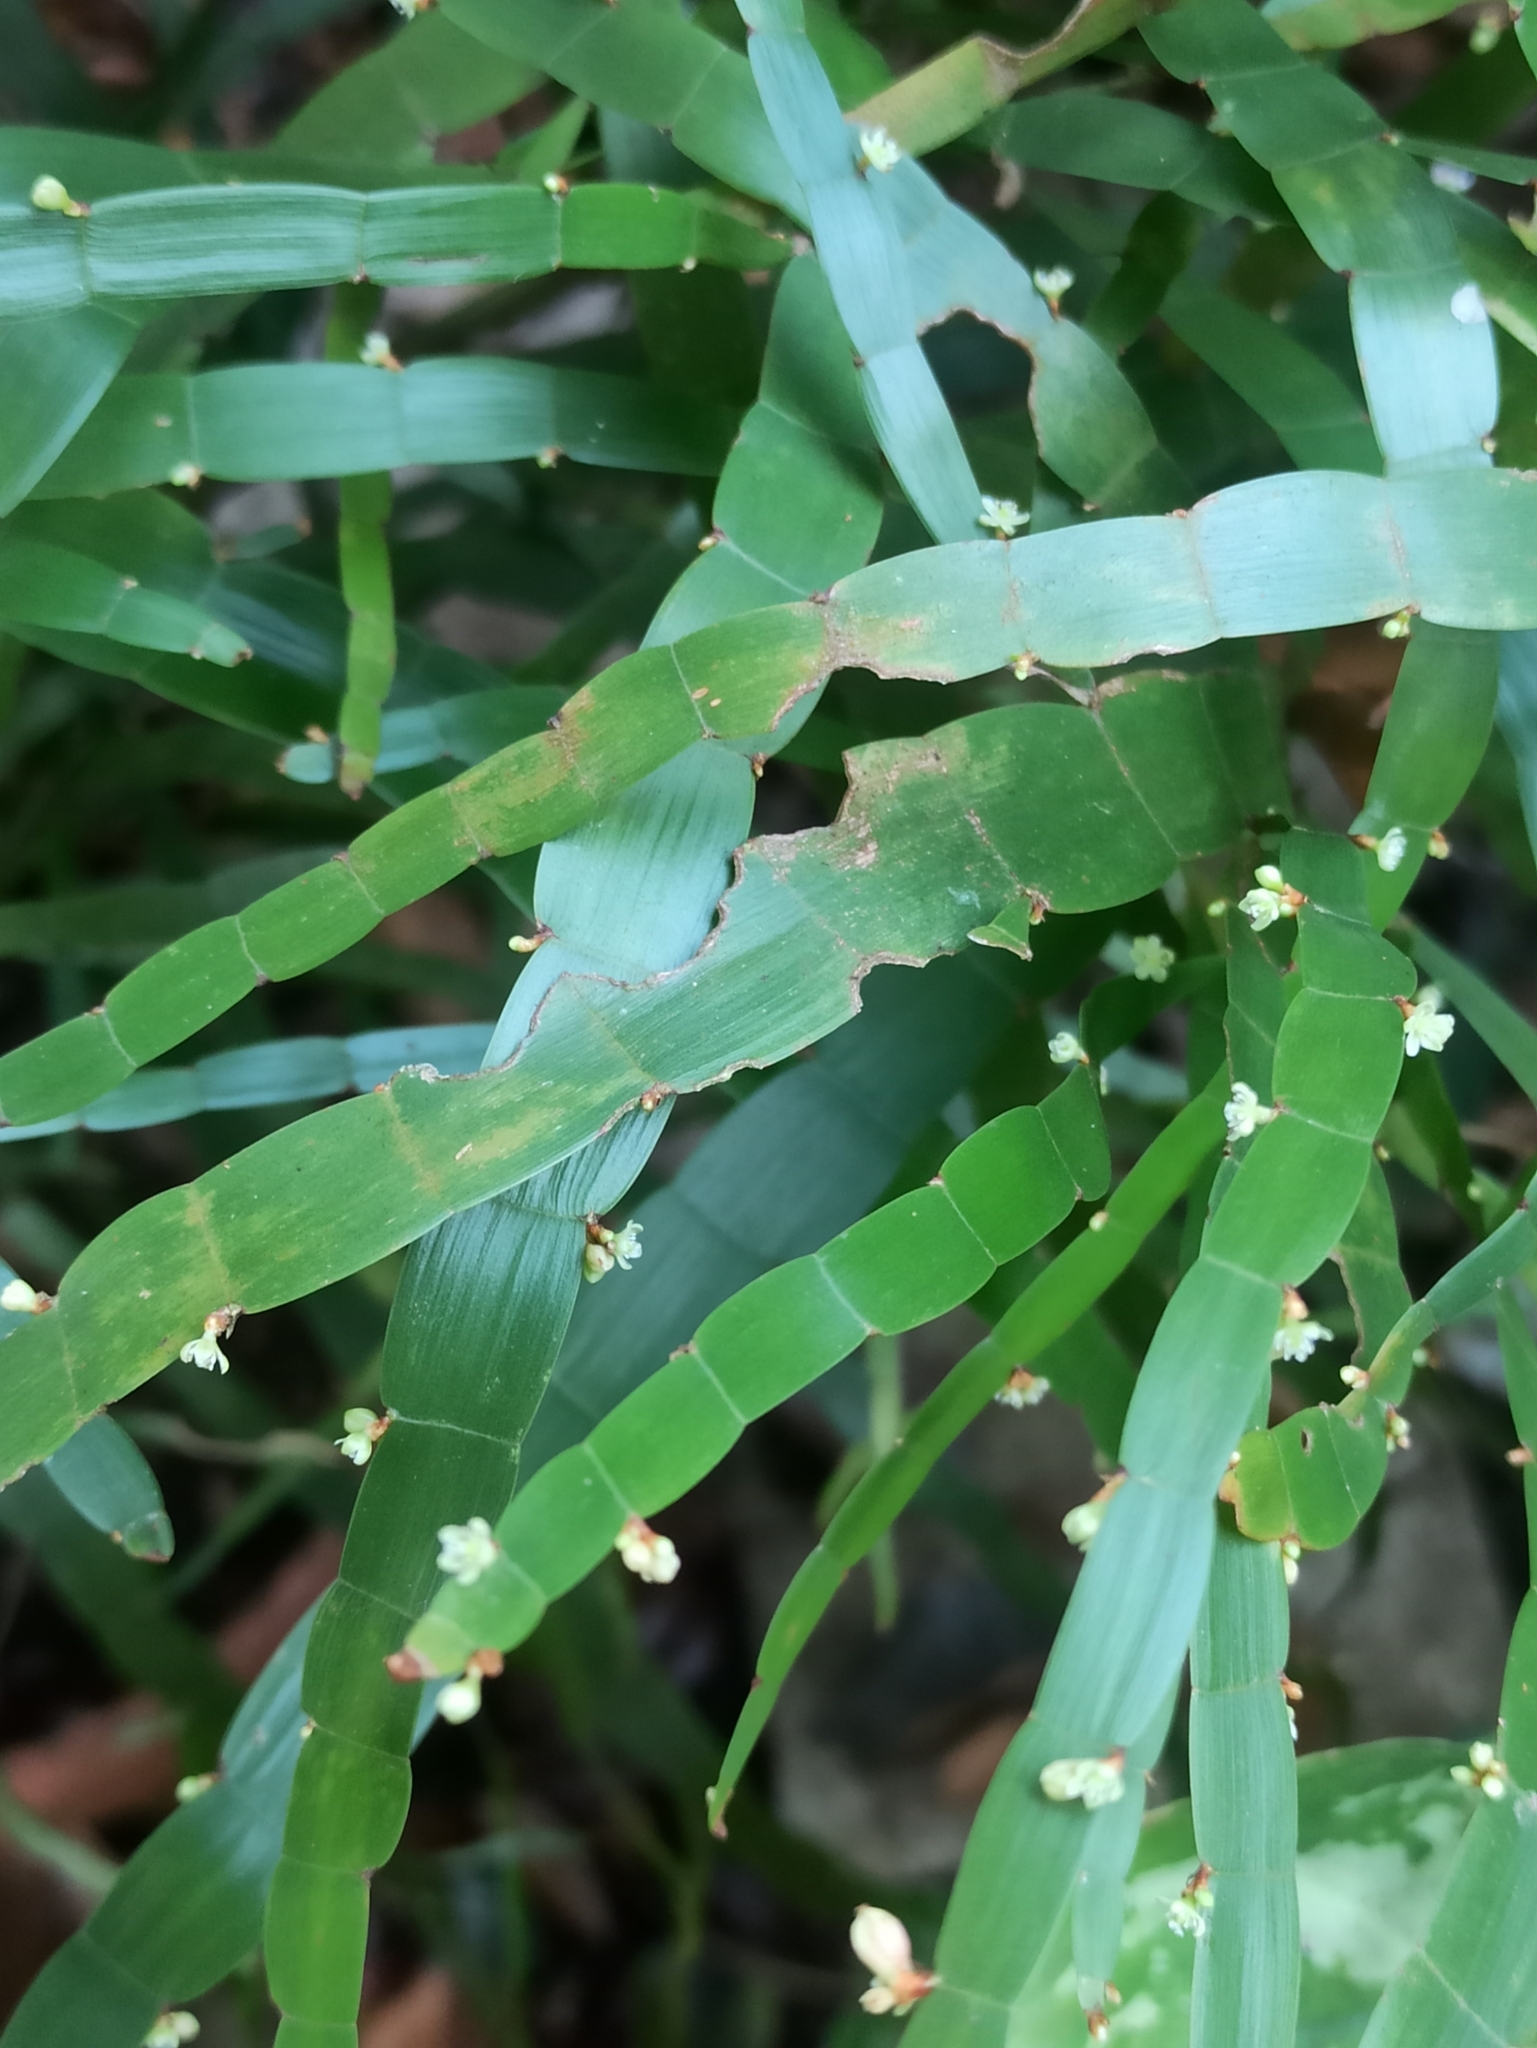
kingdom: Plantae
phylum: Tracheophyta
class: Magnoliopsida
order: Caryophyllales
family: Polygonaceae
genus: Muehlenbeckia
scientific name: Muehlenbeckia platyclada
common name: Tapewormplant
